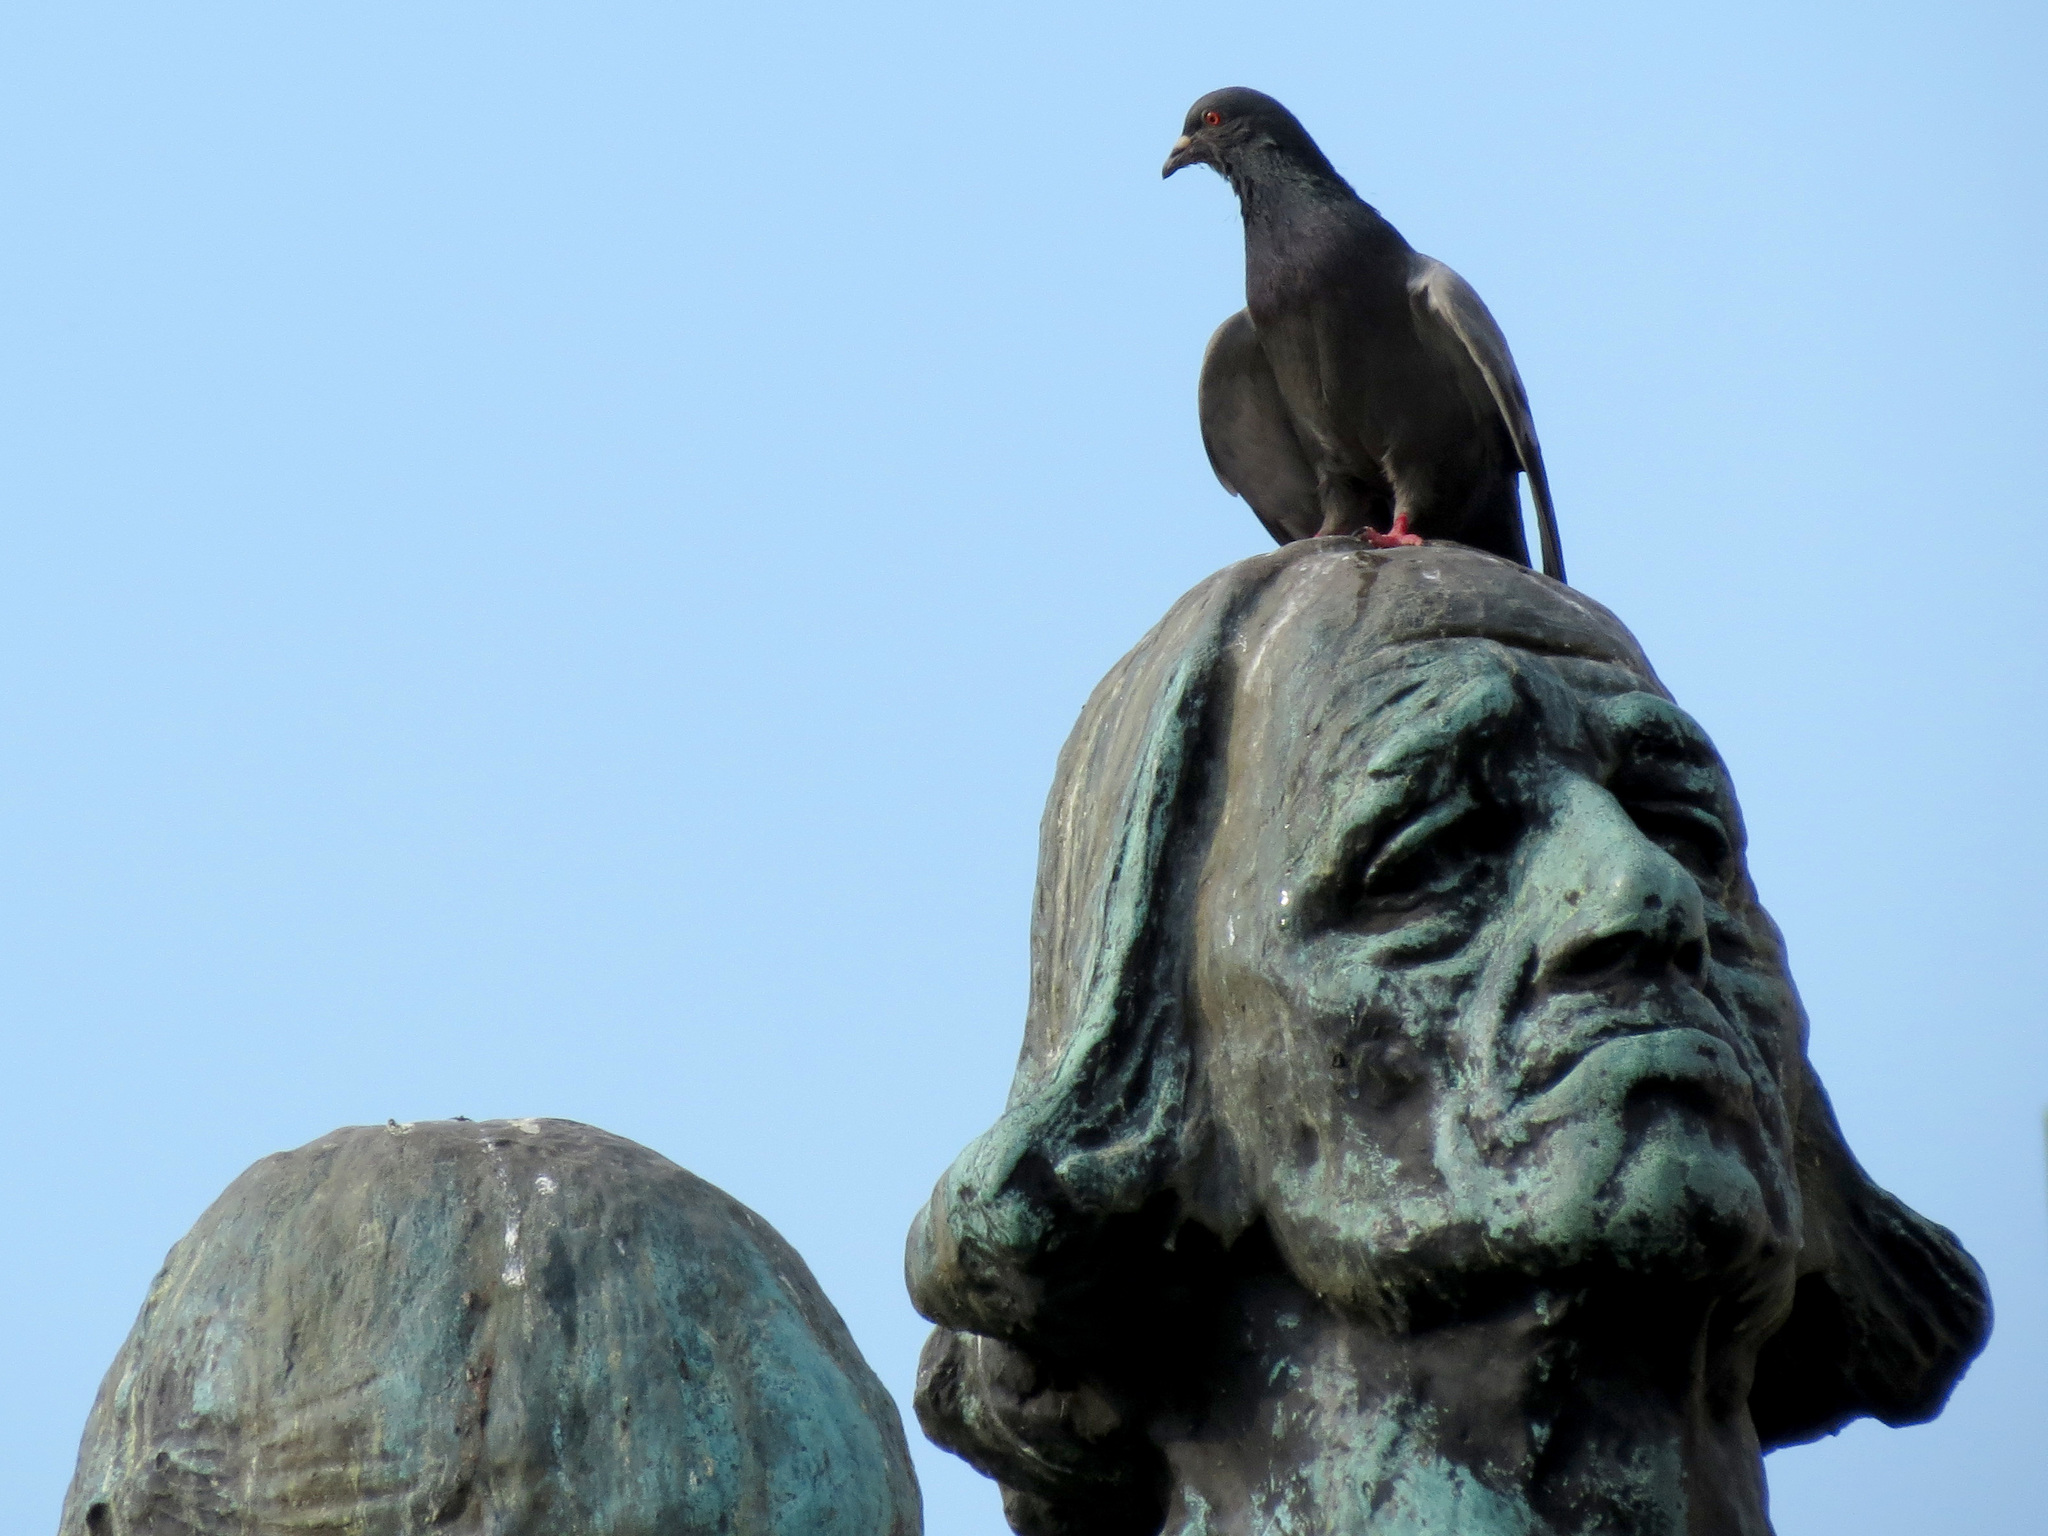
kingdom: Animalia
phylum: Chordata
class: Aves
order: Columbiformes
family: Columbidae
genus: Columba
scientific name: Columba livia
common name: Rock pigeon
